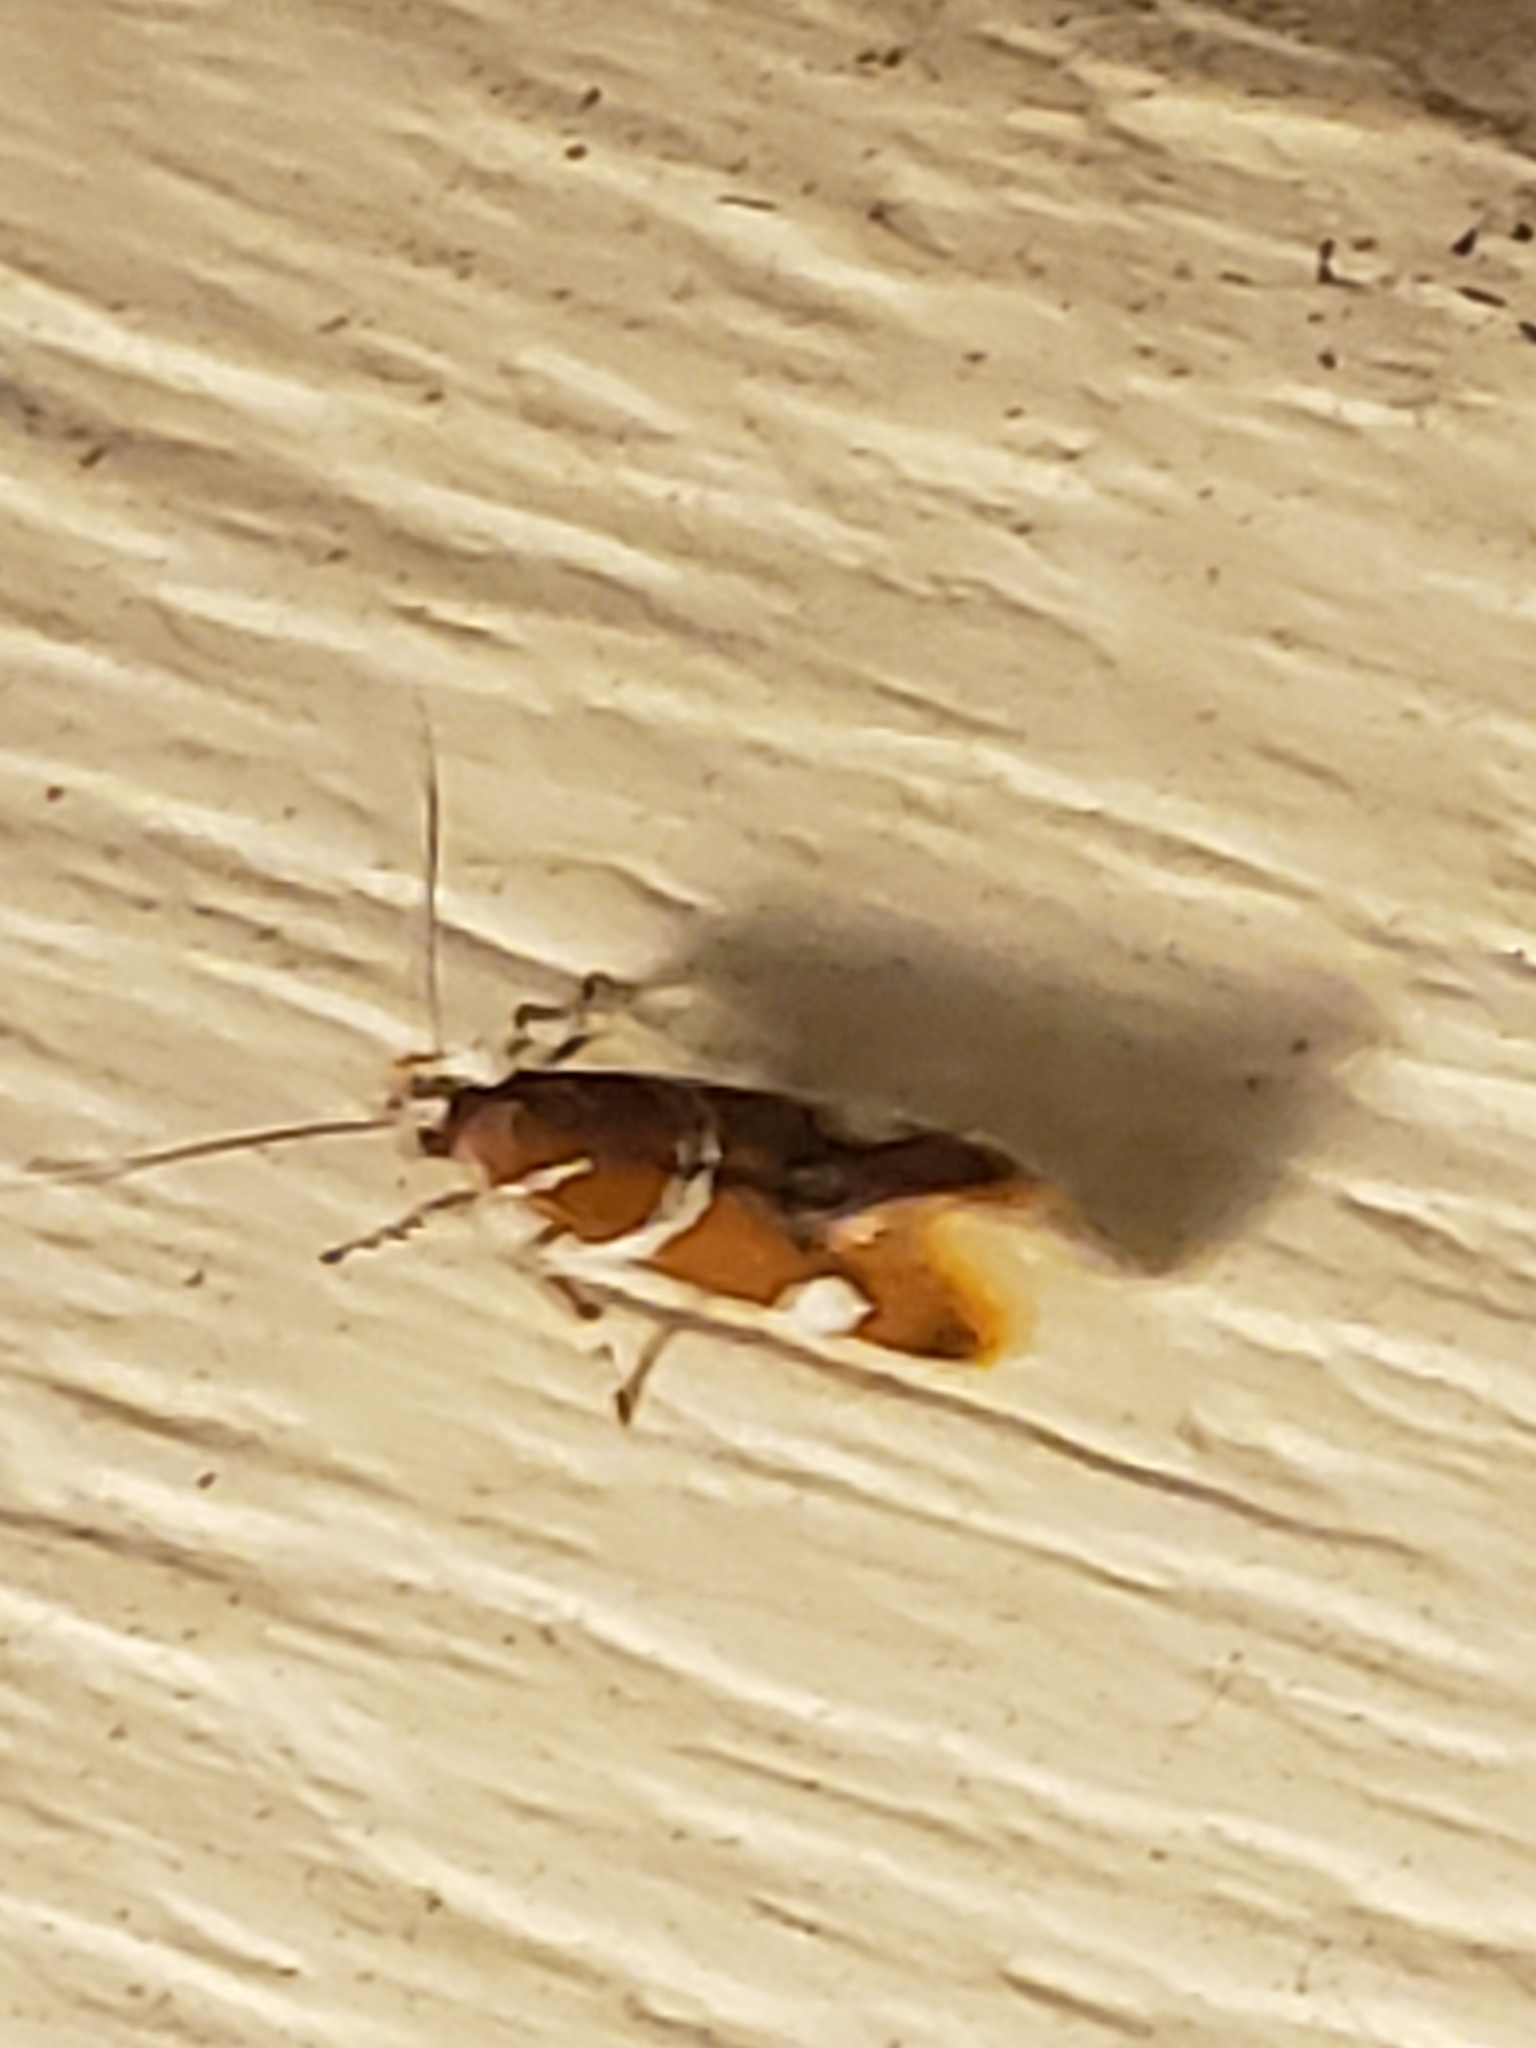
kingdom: Animalia
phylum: Arthropoda
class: Insecta
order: Lepidoptera
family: Oecophoridae
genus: Promalactis
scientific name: Promalactis suzukiella
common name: Moth
